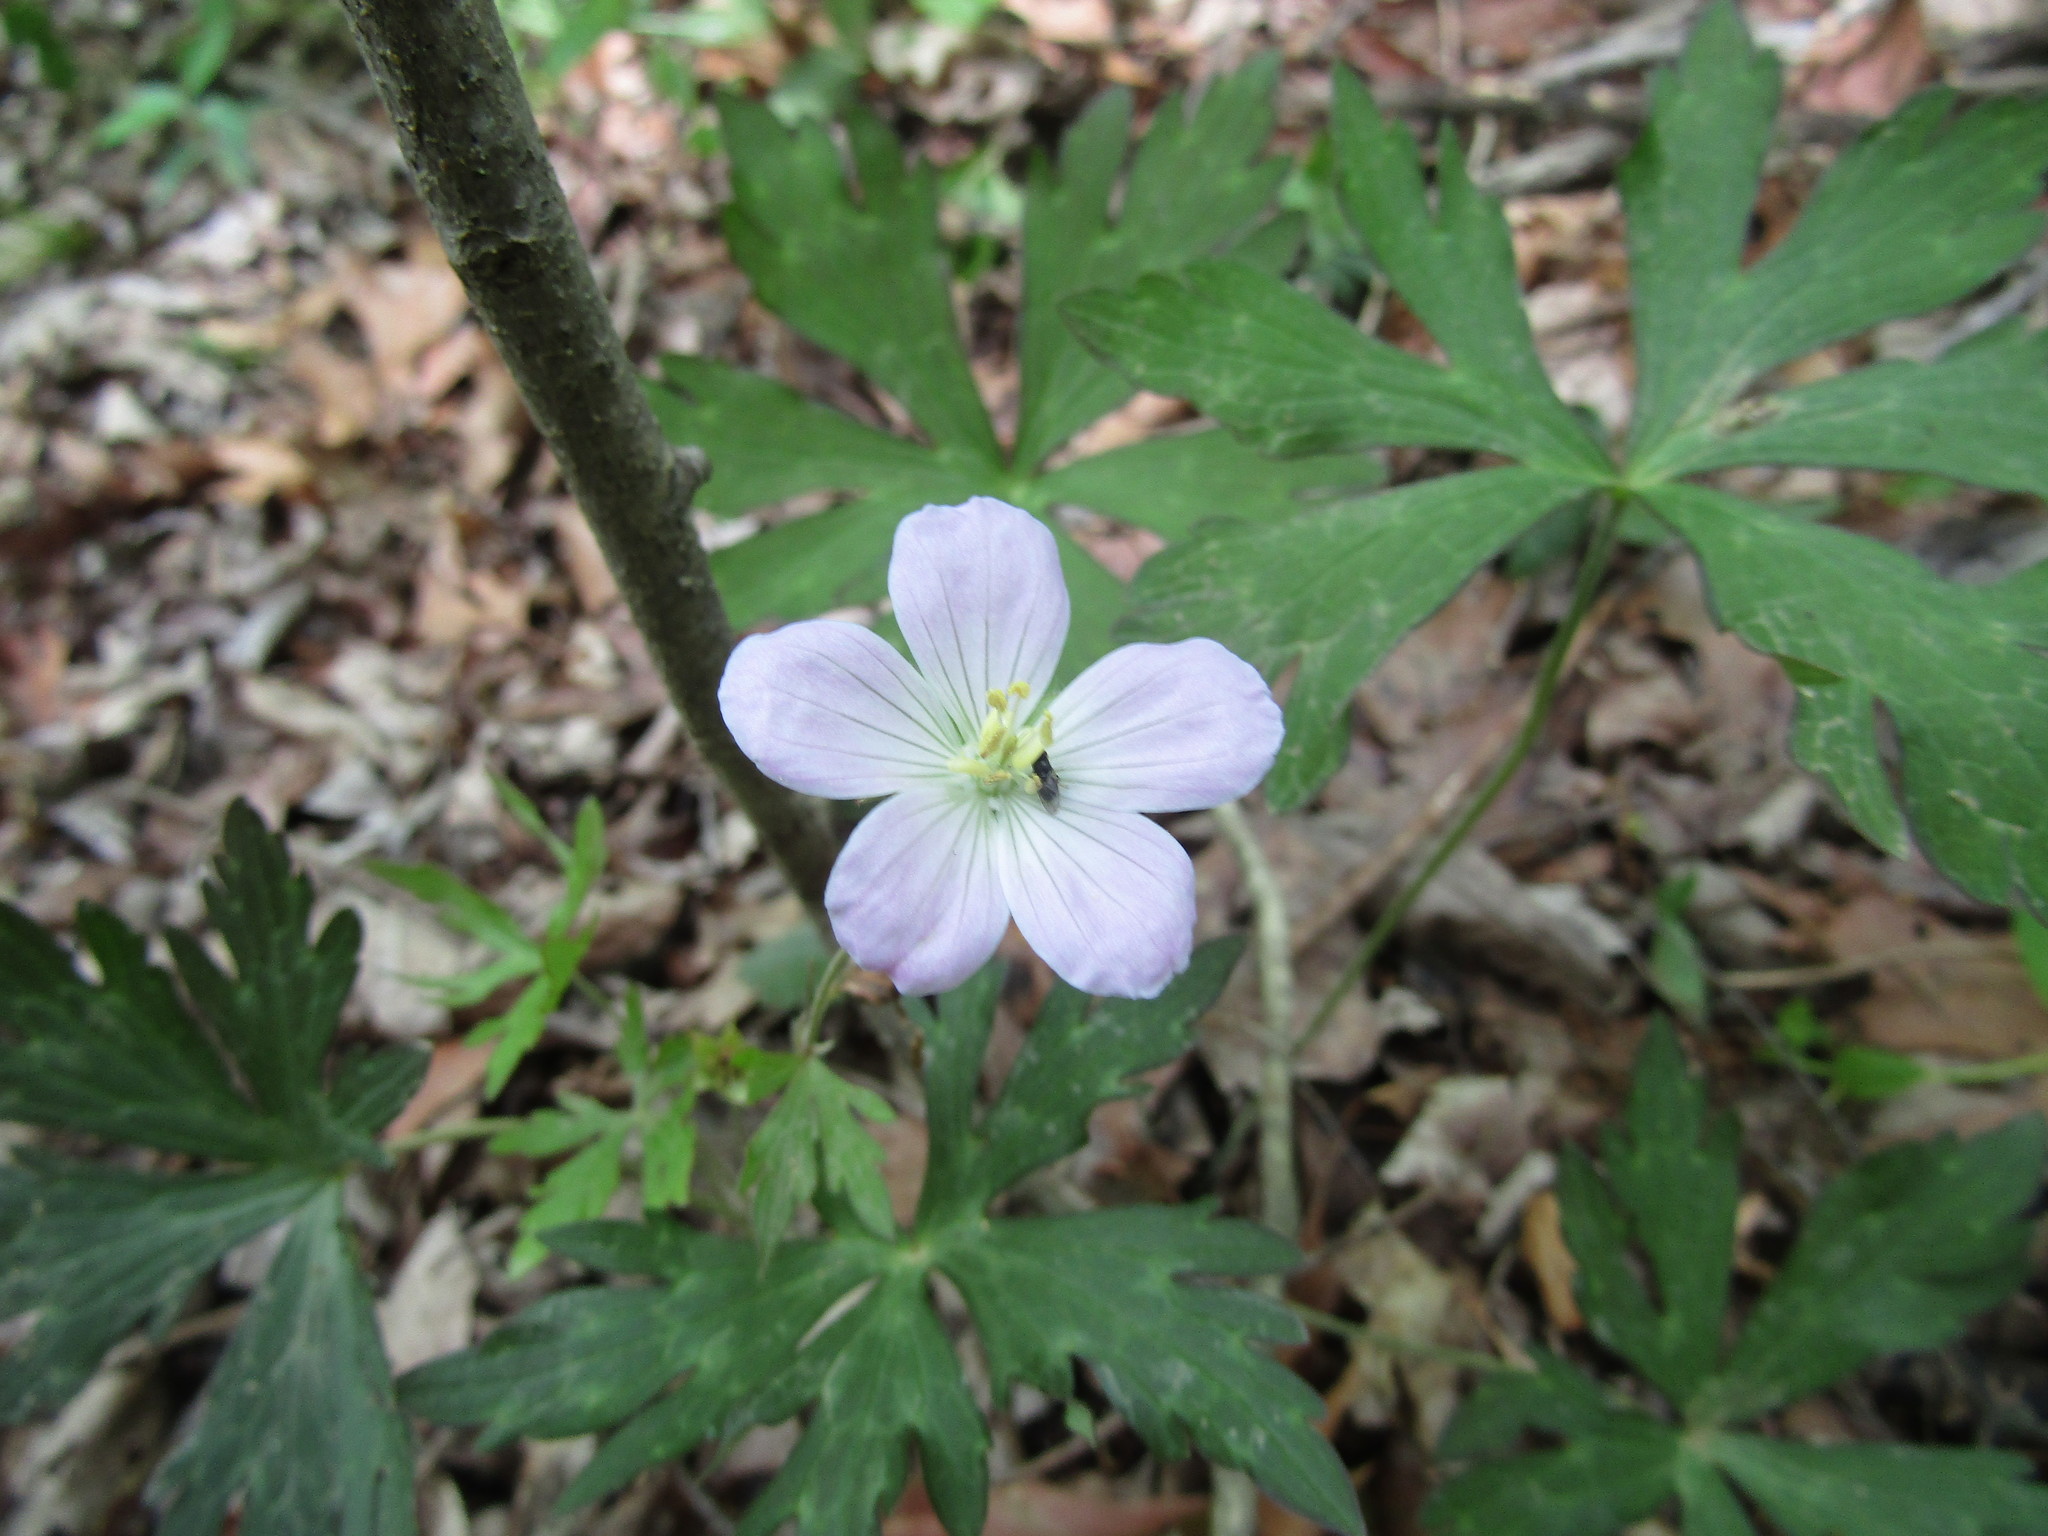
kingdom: Plantae
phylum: Tracheophyta
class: Magnoliopsida
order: Geraniales
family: Geraniaceae
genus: Geranium
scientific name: Geranium maculatum
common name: Spotted geranium
